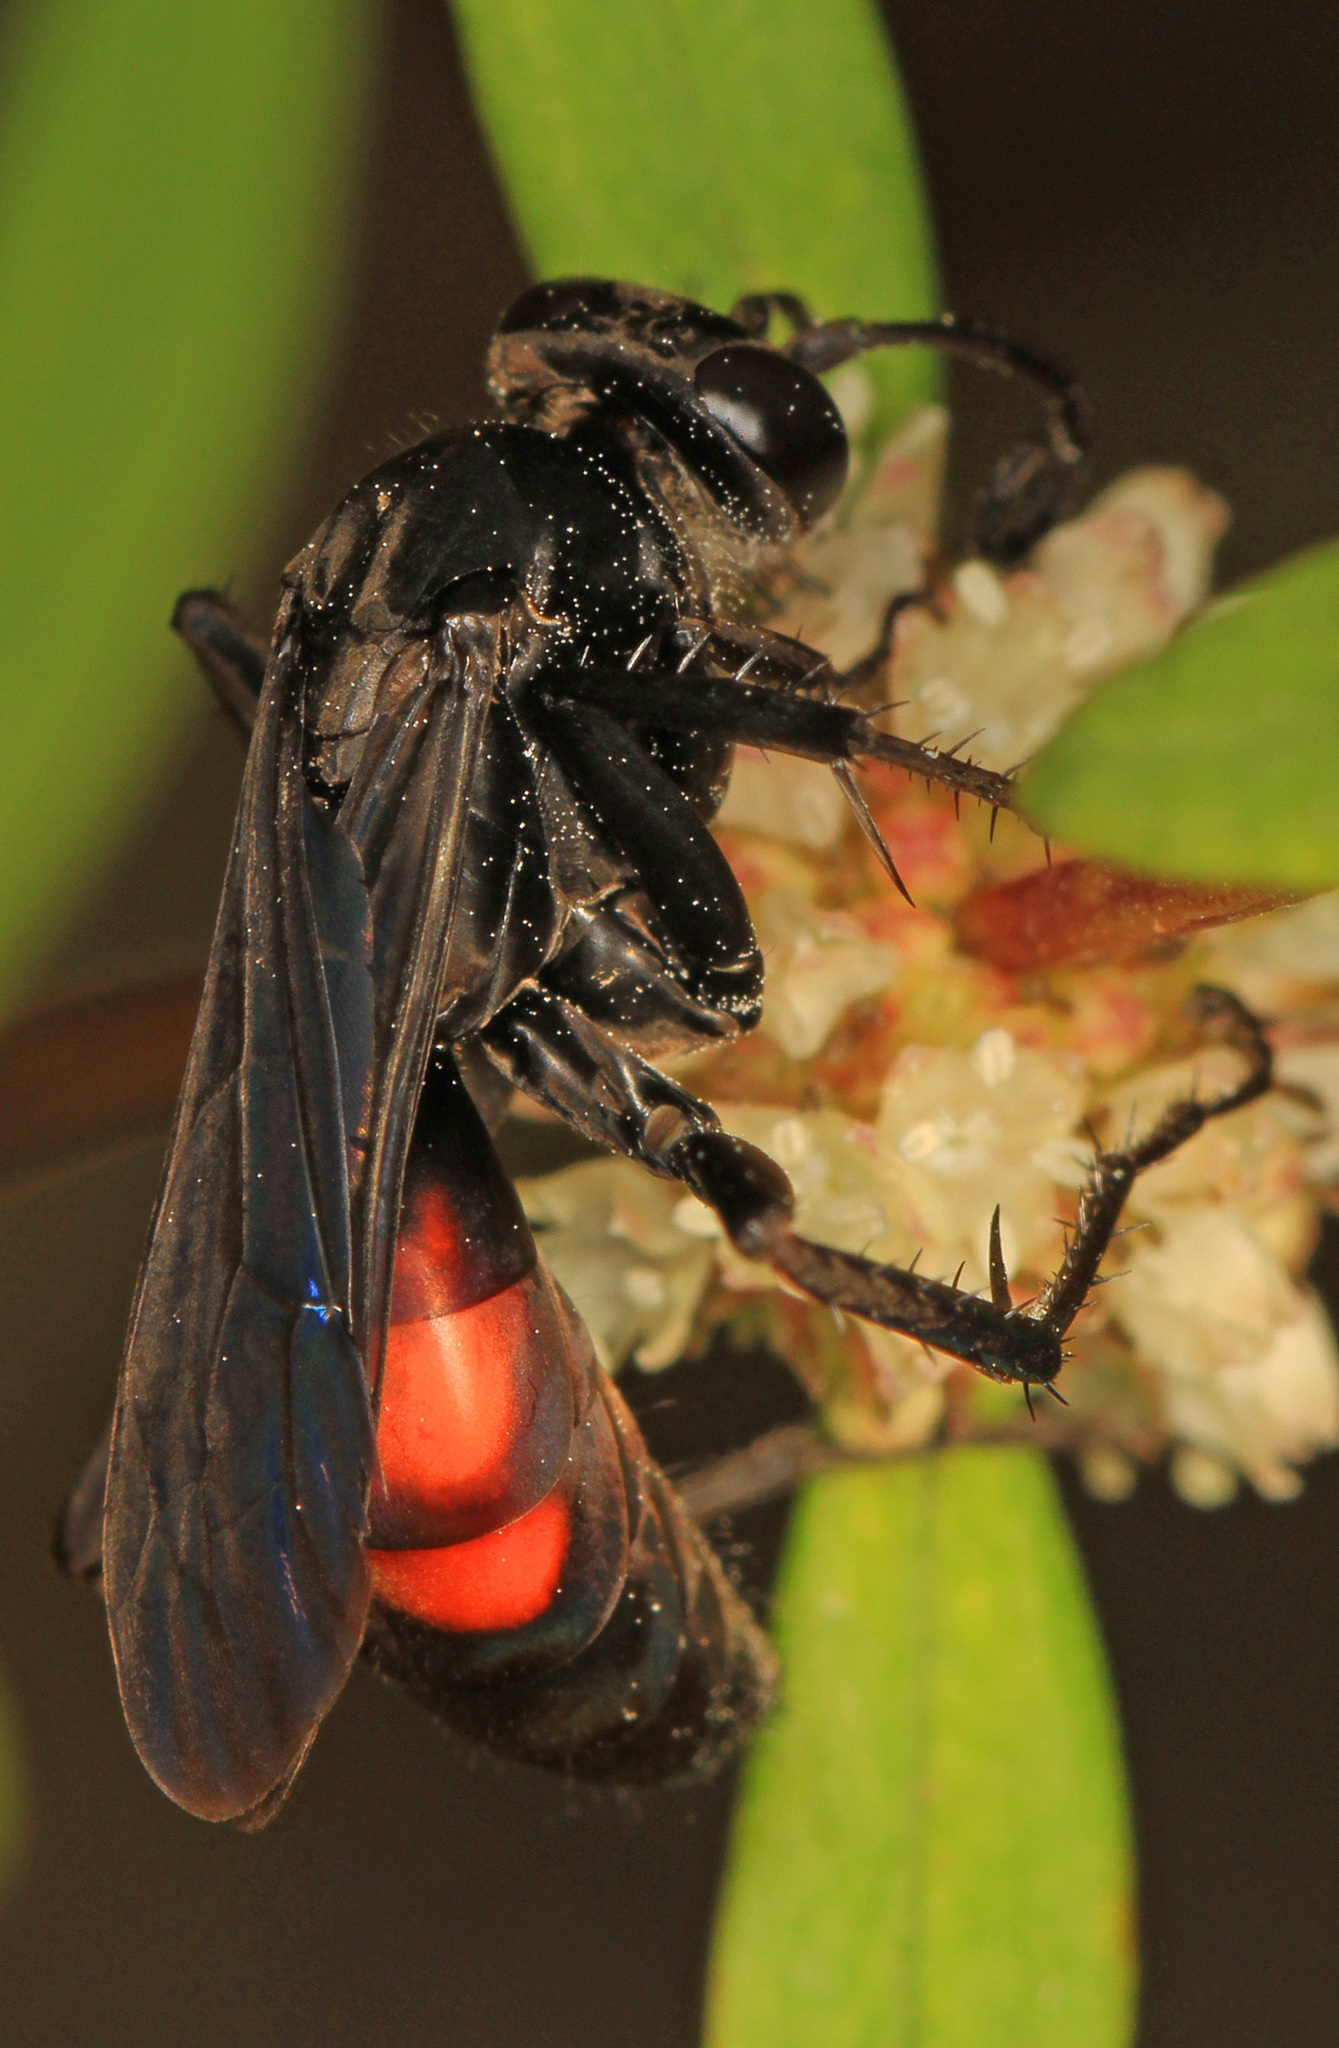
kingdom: Animalia
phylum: Arthropoda
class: Insecta
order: Hymenoptera
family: Pompilidae
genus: Anoplius
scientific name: Anoplius americanus
